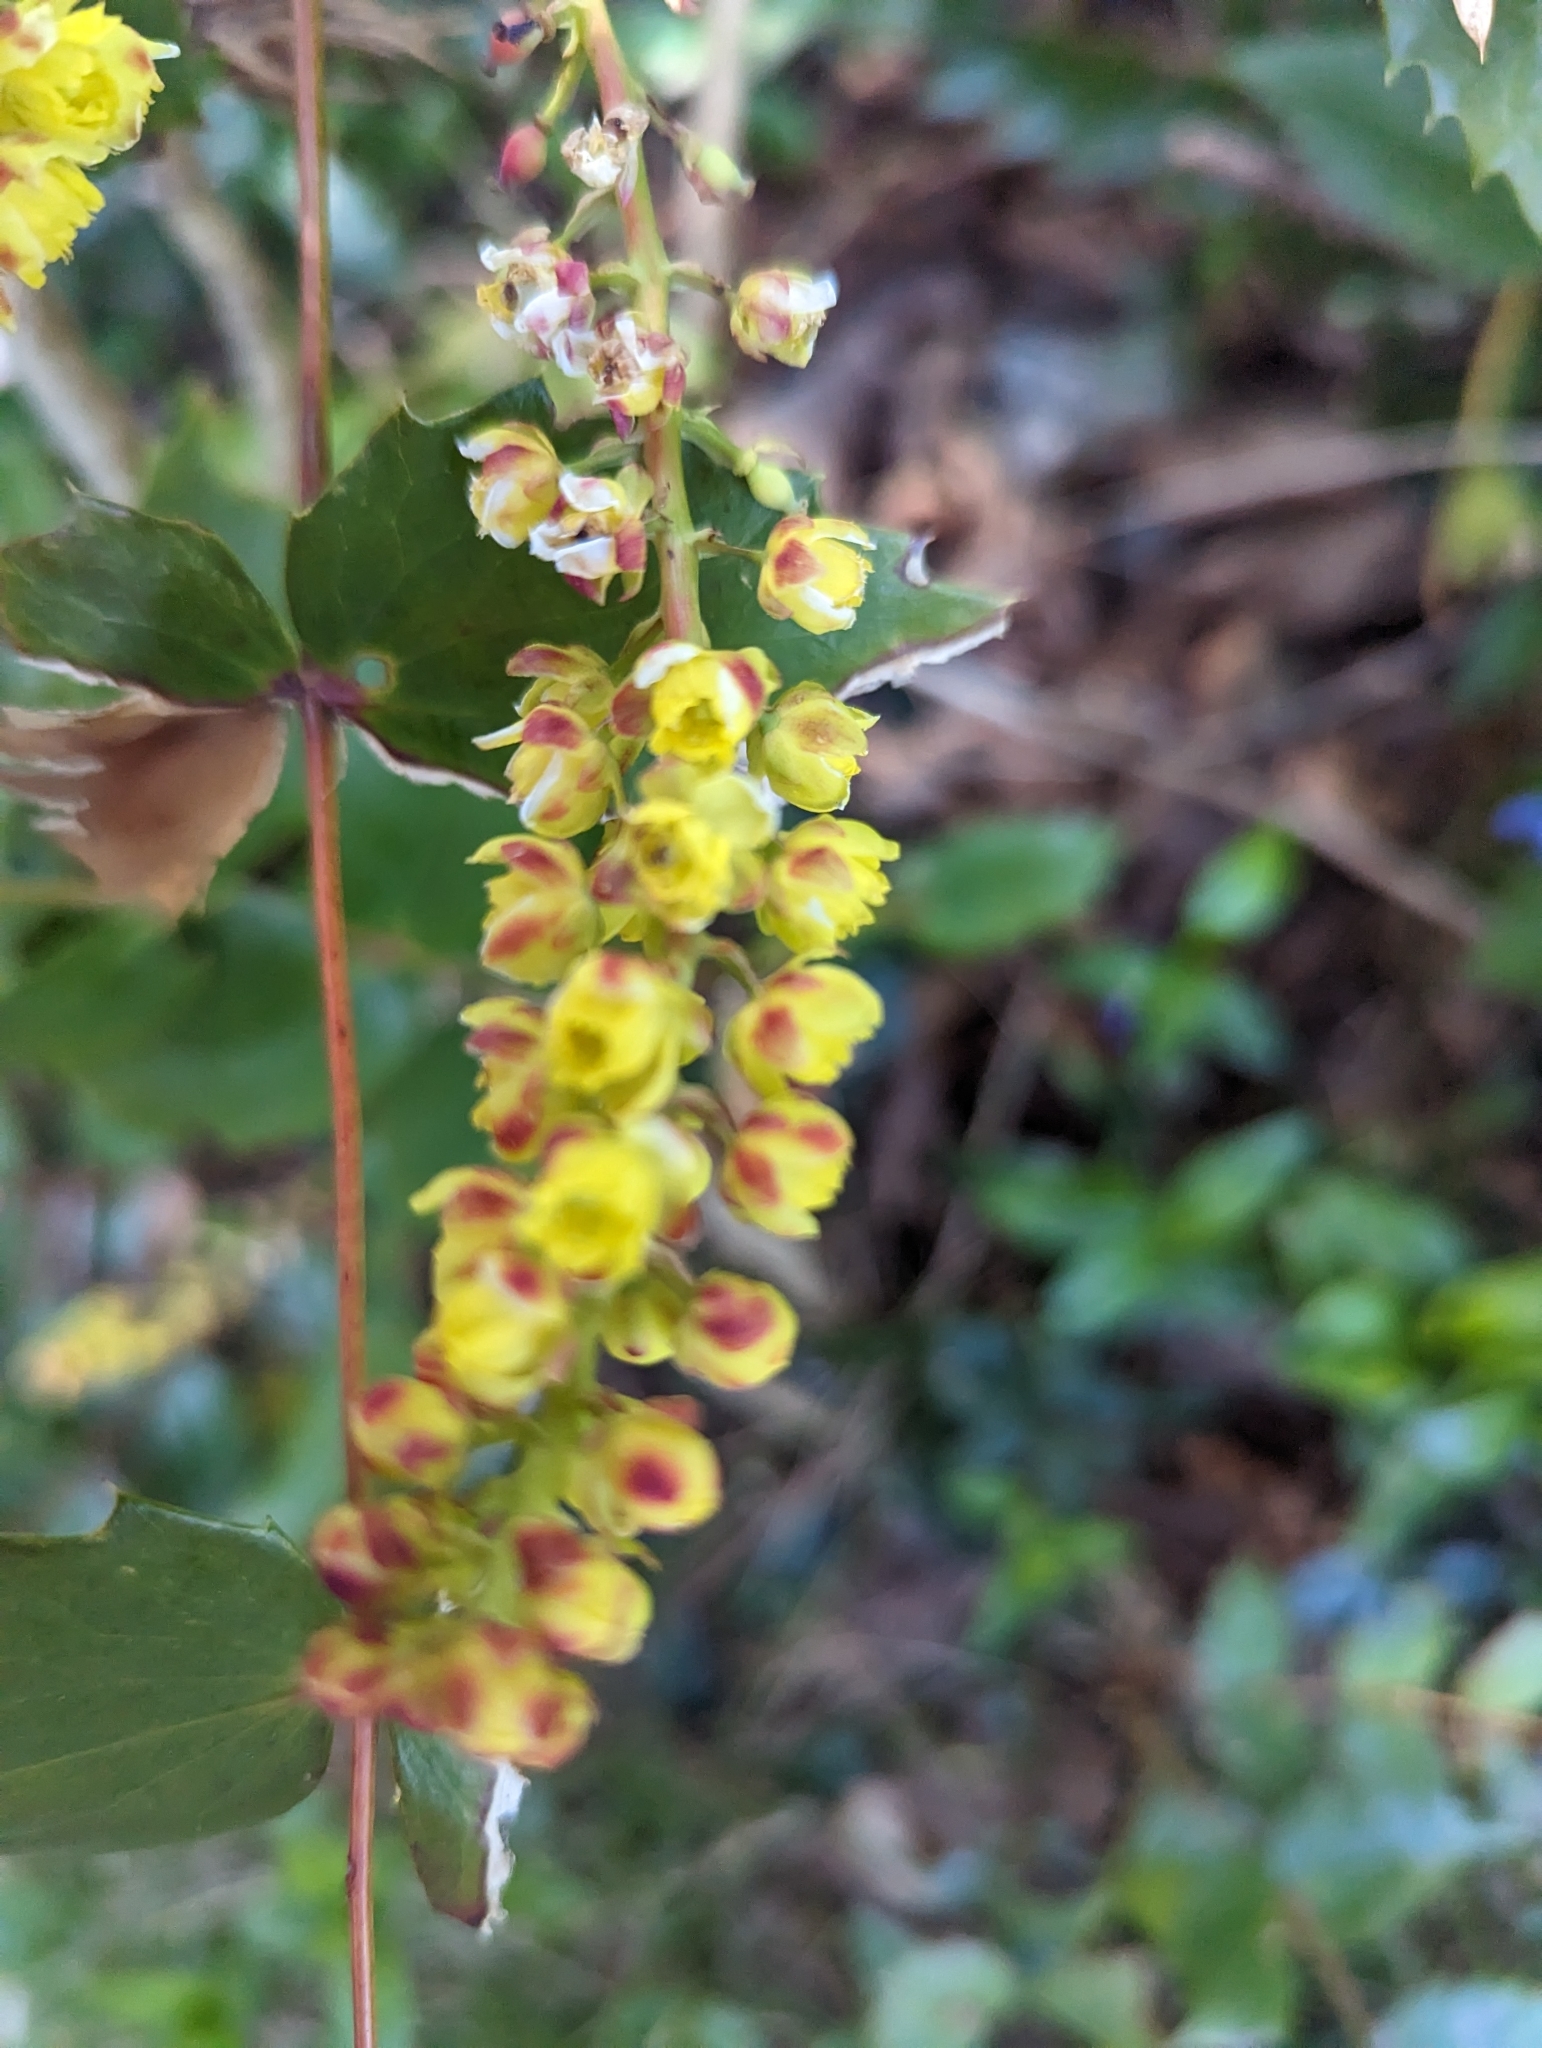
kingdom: Plantae
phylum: Tracheophyta
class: Magnoliopsida
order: Ranunculales
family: Berberidaceae
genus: Mahonia
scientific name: Mahonia nervosa
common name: Cascade oregon-grape
